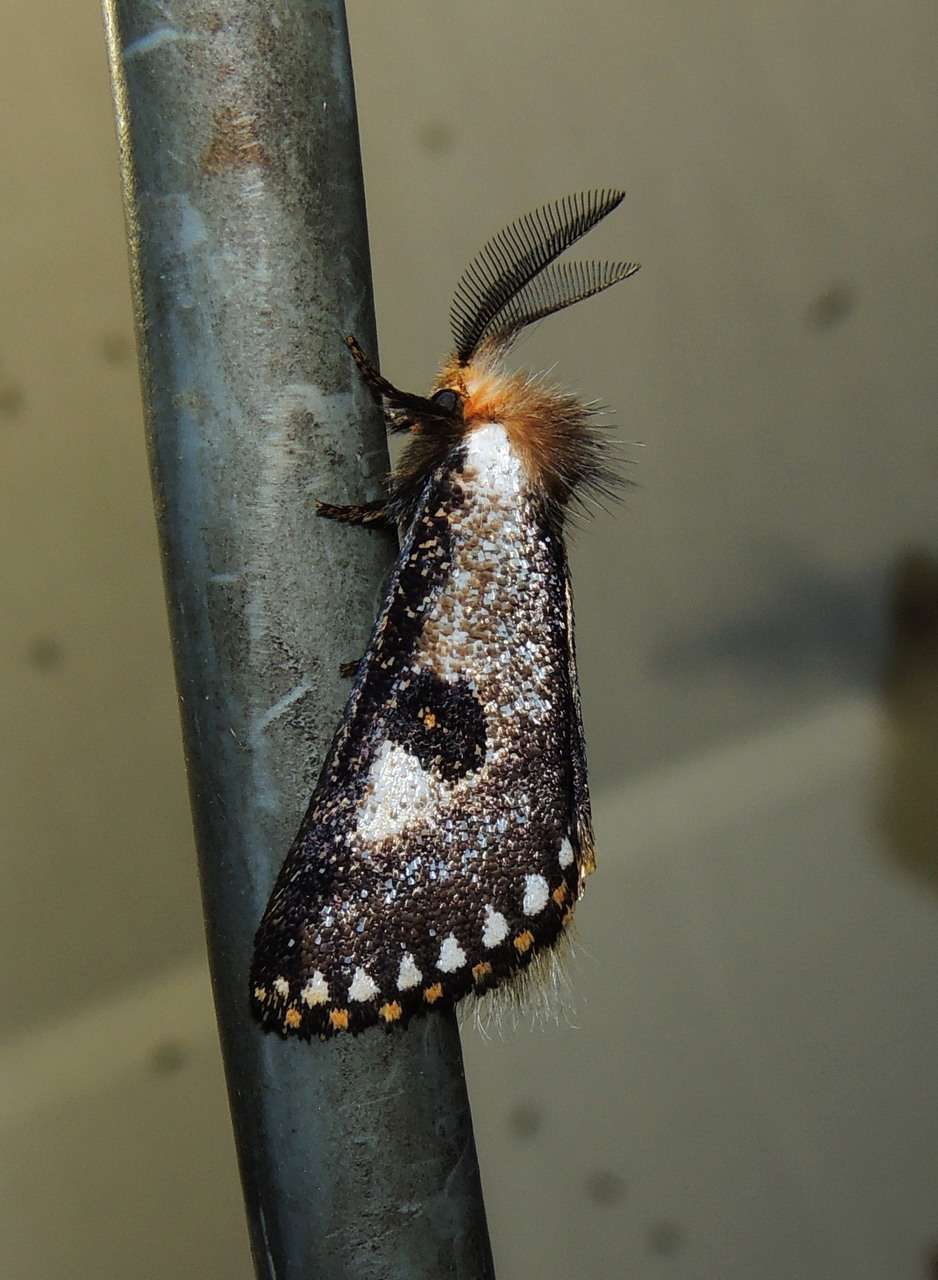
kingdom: Animalia
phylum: Arthropoda
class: Insecta
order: Lepidoptera
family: Notodontidae
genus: Epicoma
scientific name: Epicoma contristis
